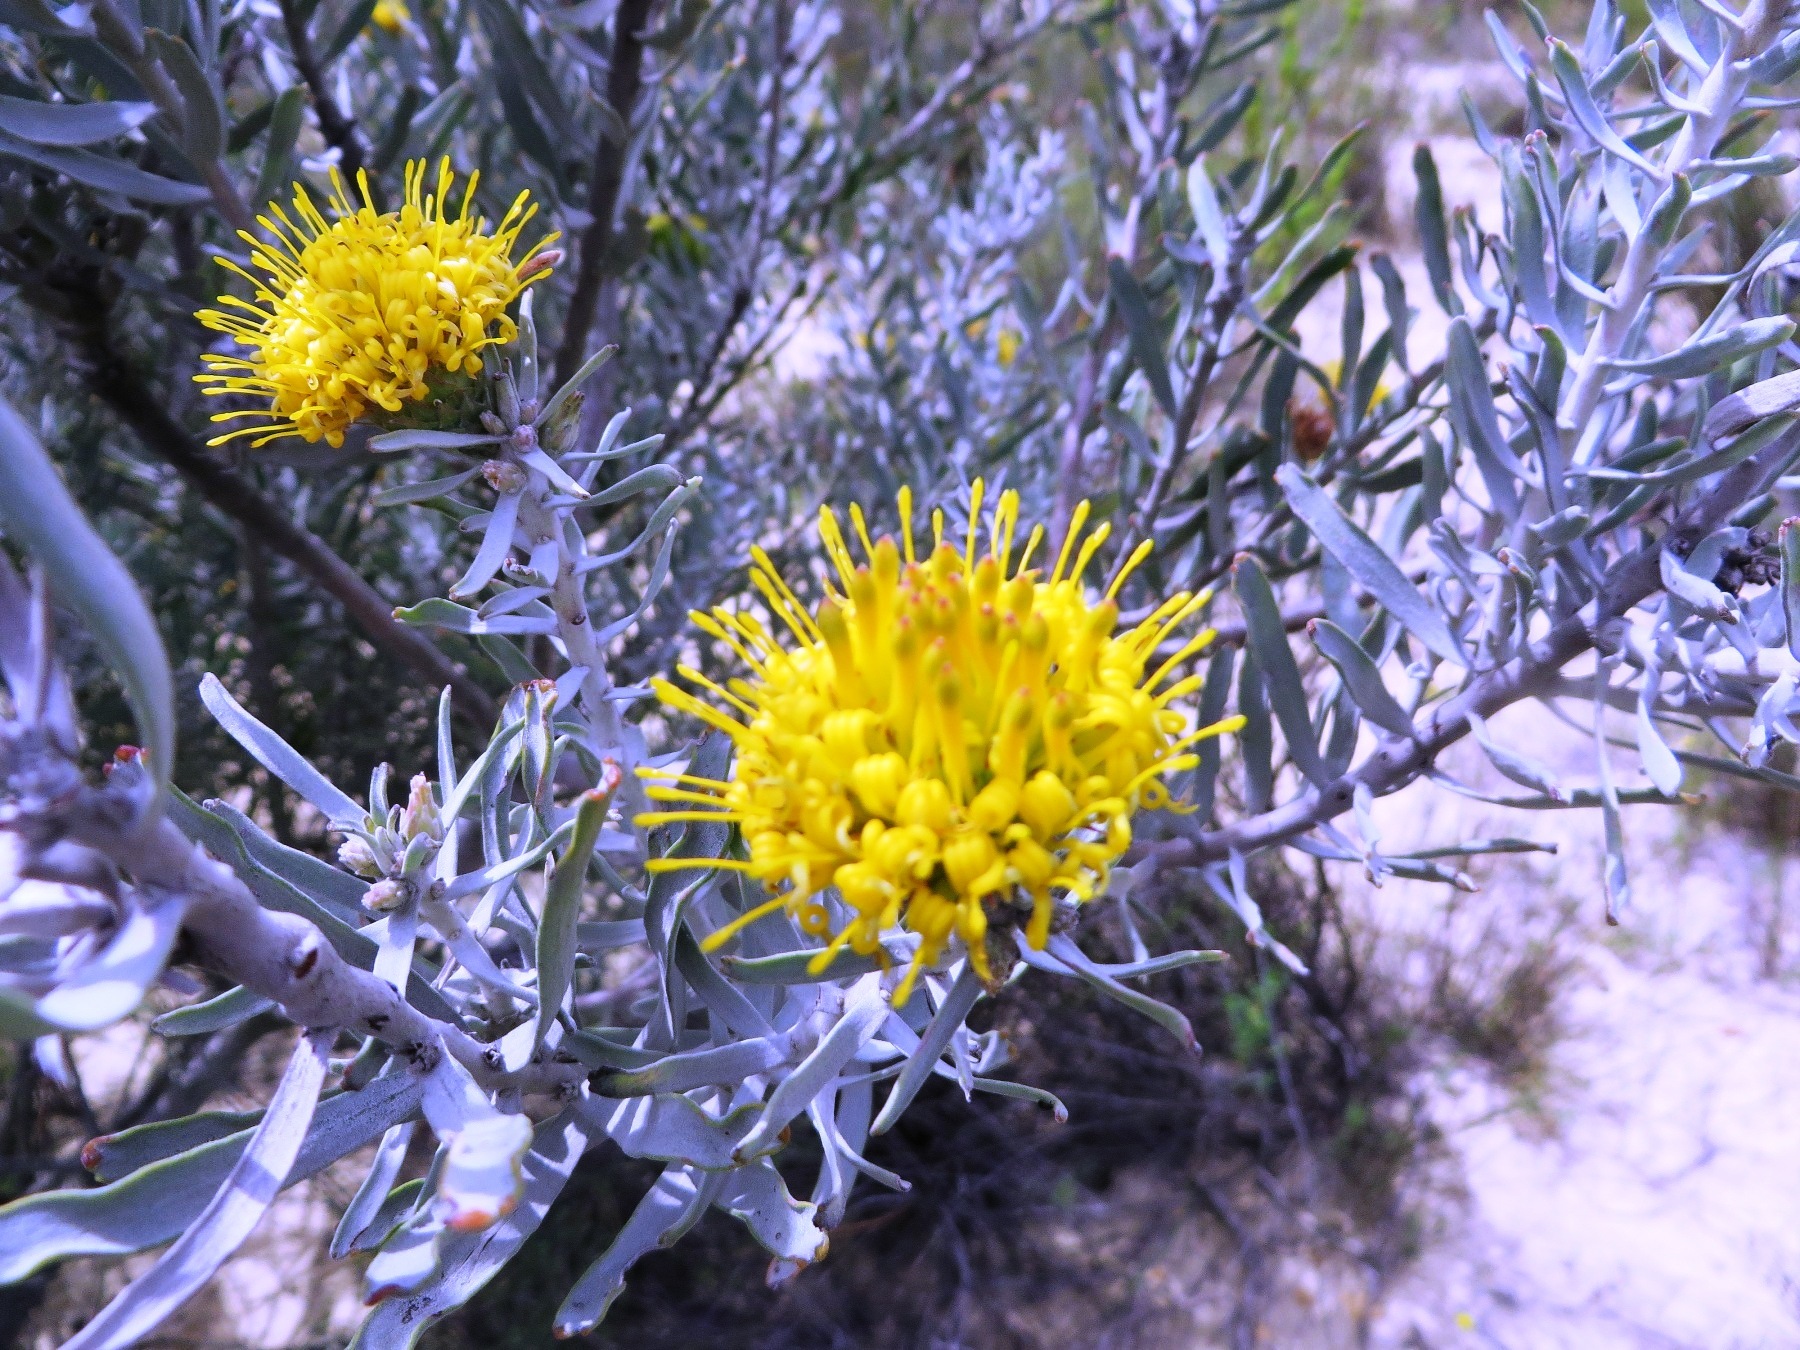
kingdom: Plantae
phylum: Tracheophyta
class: Magnoliopsida
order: Proteales
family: Proteaceae
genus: Leucospermum
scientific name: Leucospermum rodolentum
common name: Pincushion
